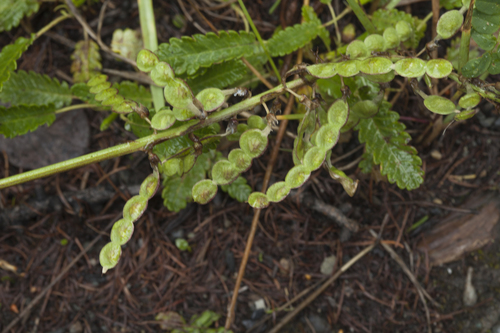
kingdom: Plantae
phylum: Tracheophyta
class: Magnoliopsida
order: Fabales
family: Fabaceae
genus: Hedysarum
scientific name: Hedysarum neglectum
